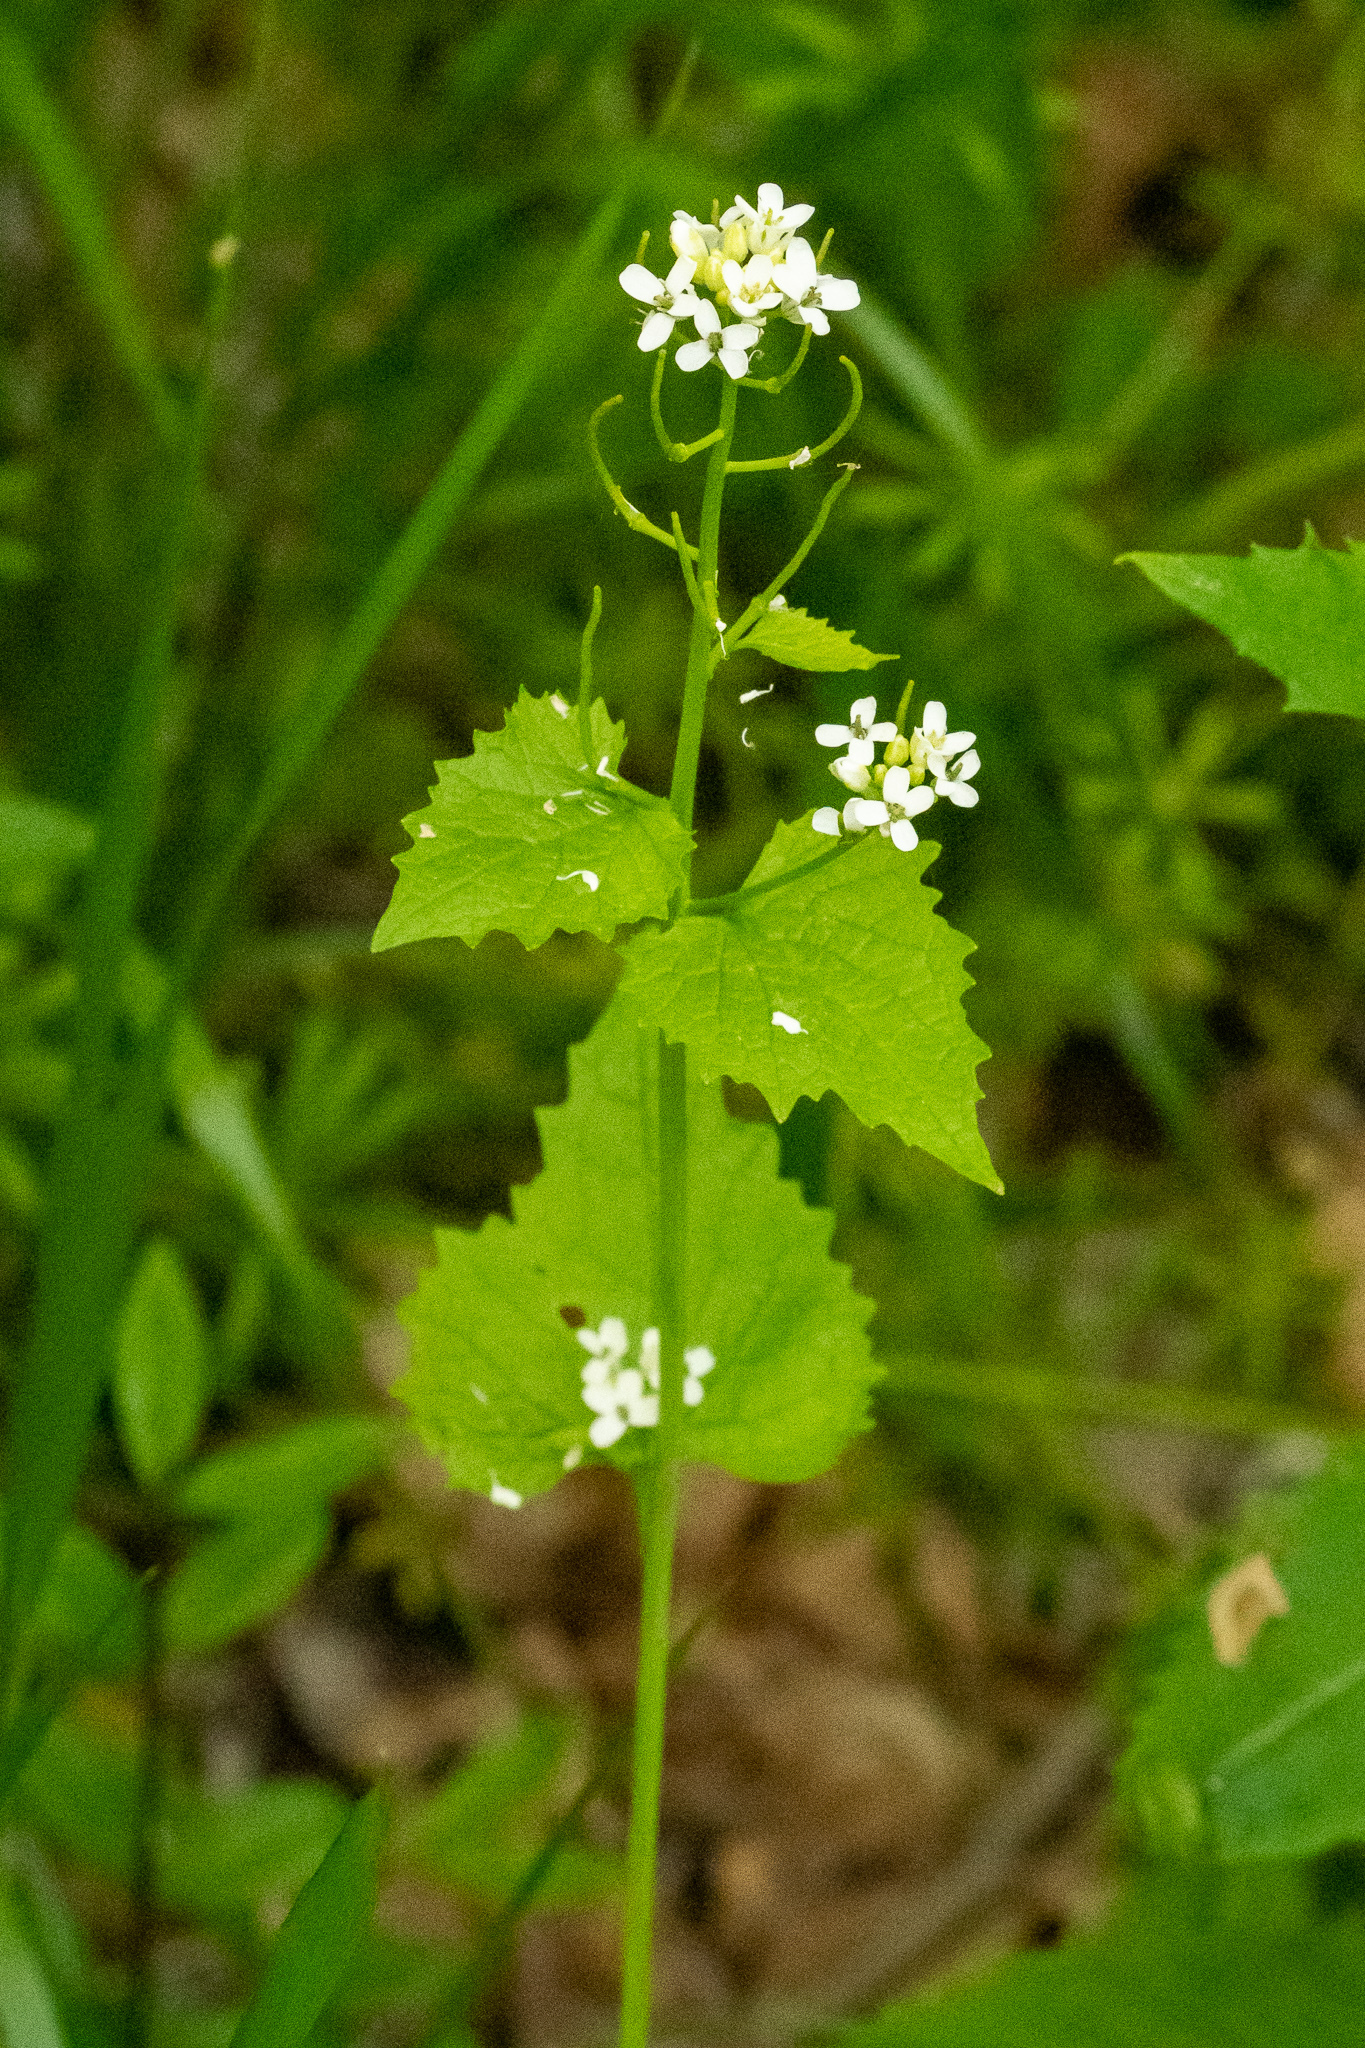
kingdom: Plantae
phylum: Tracheophyta
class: Magnoliopsida
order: Brassicales
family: Brassicaceae
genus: Alliaria
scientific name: Alliaria petiolata
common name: Garlic mustard
